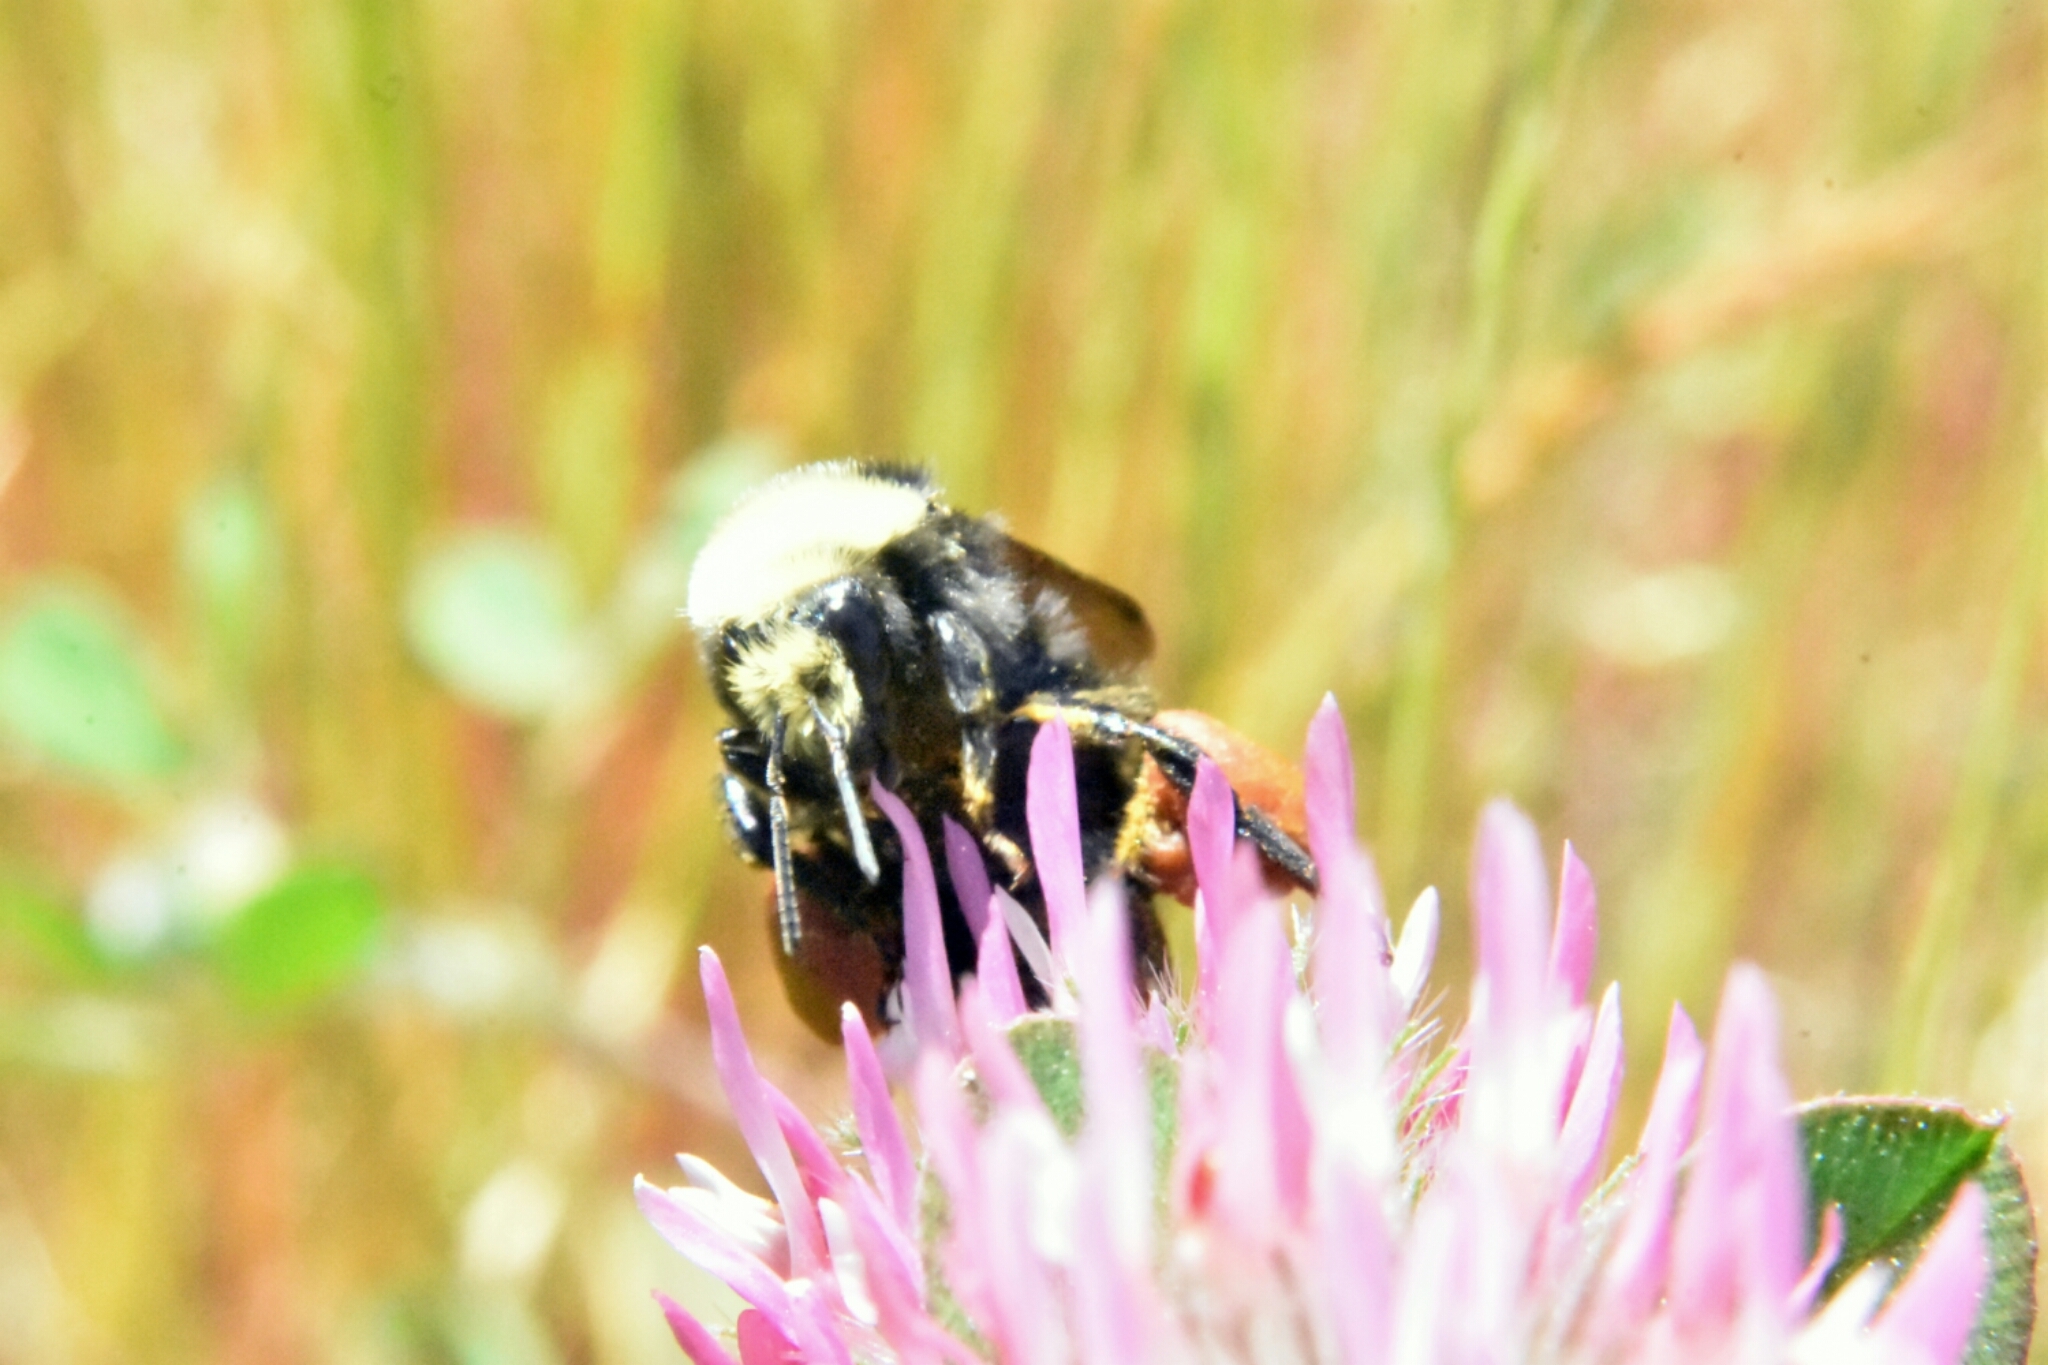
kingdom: Animalia
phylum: Arthropoda
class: Insecta
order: Hymenoptera
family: Apidae
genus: Bombus
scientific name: Bombus vosnesenskii
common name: Vosnesensky bumble bee
